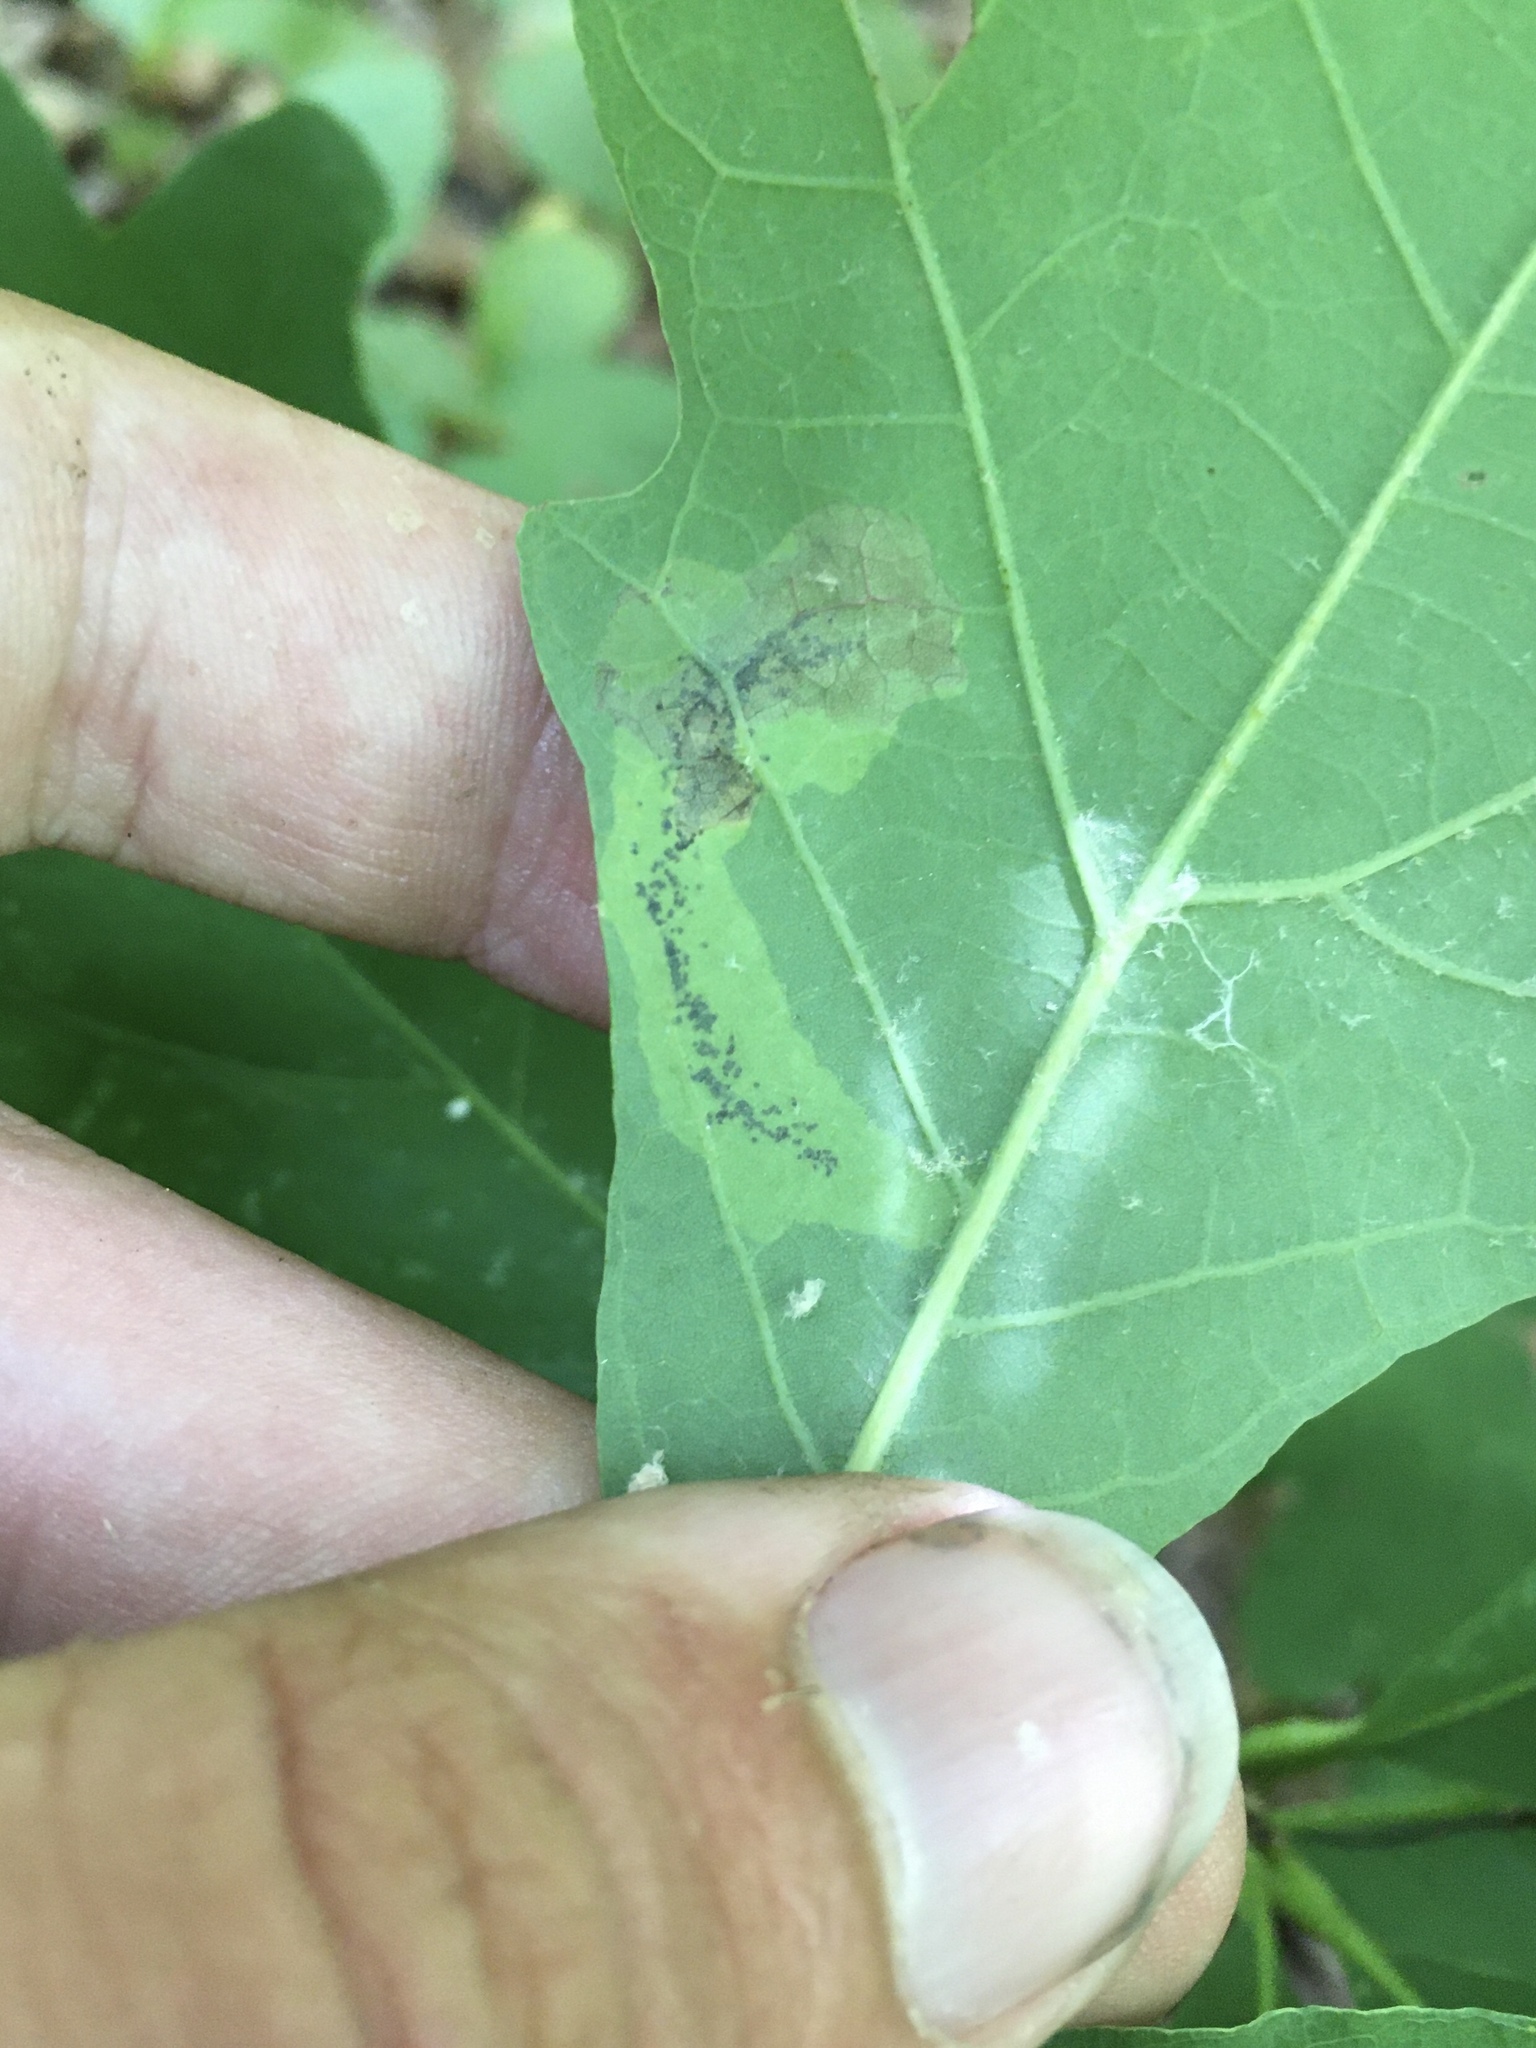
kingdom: Animalia
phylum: Arthropoda
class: Insecta
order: Lepidoptera
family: Gracillariidae
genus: Cameraria
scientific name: Cameraria
